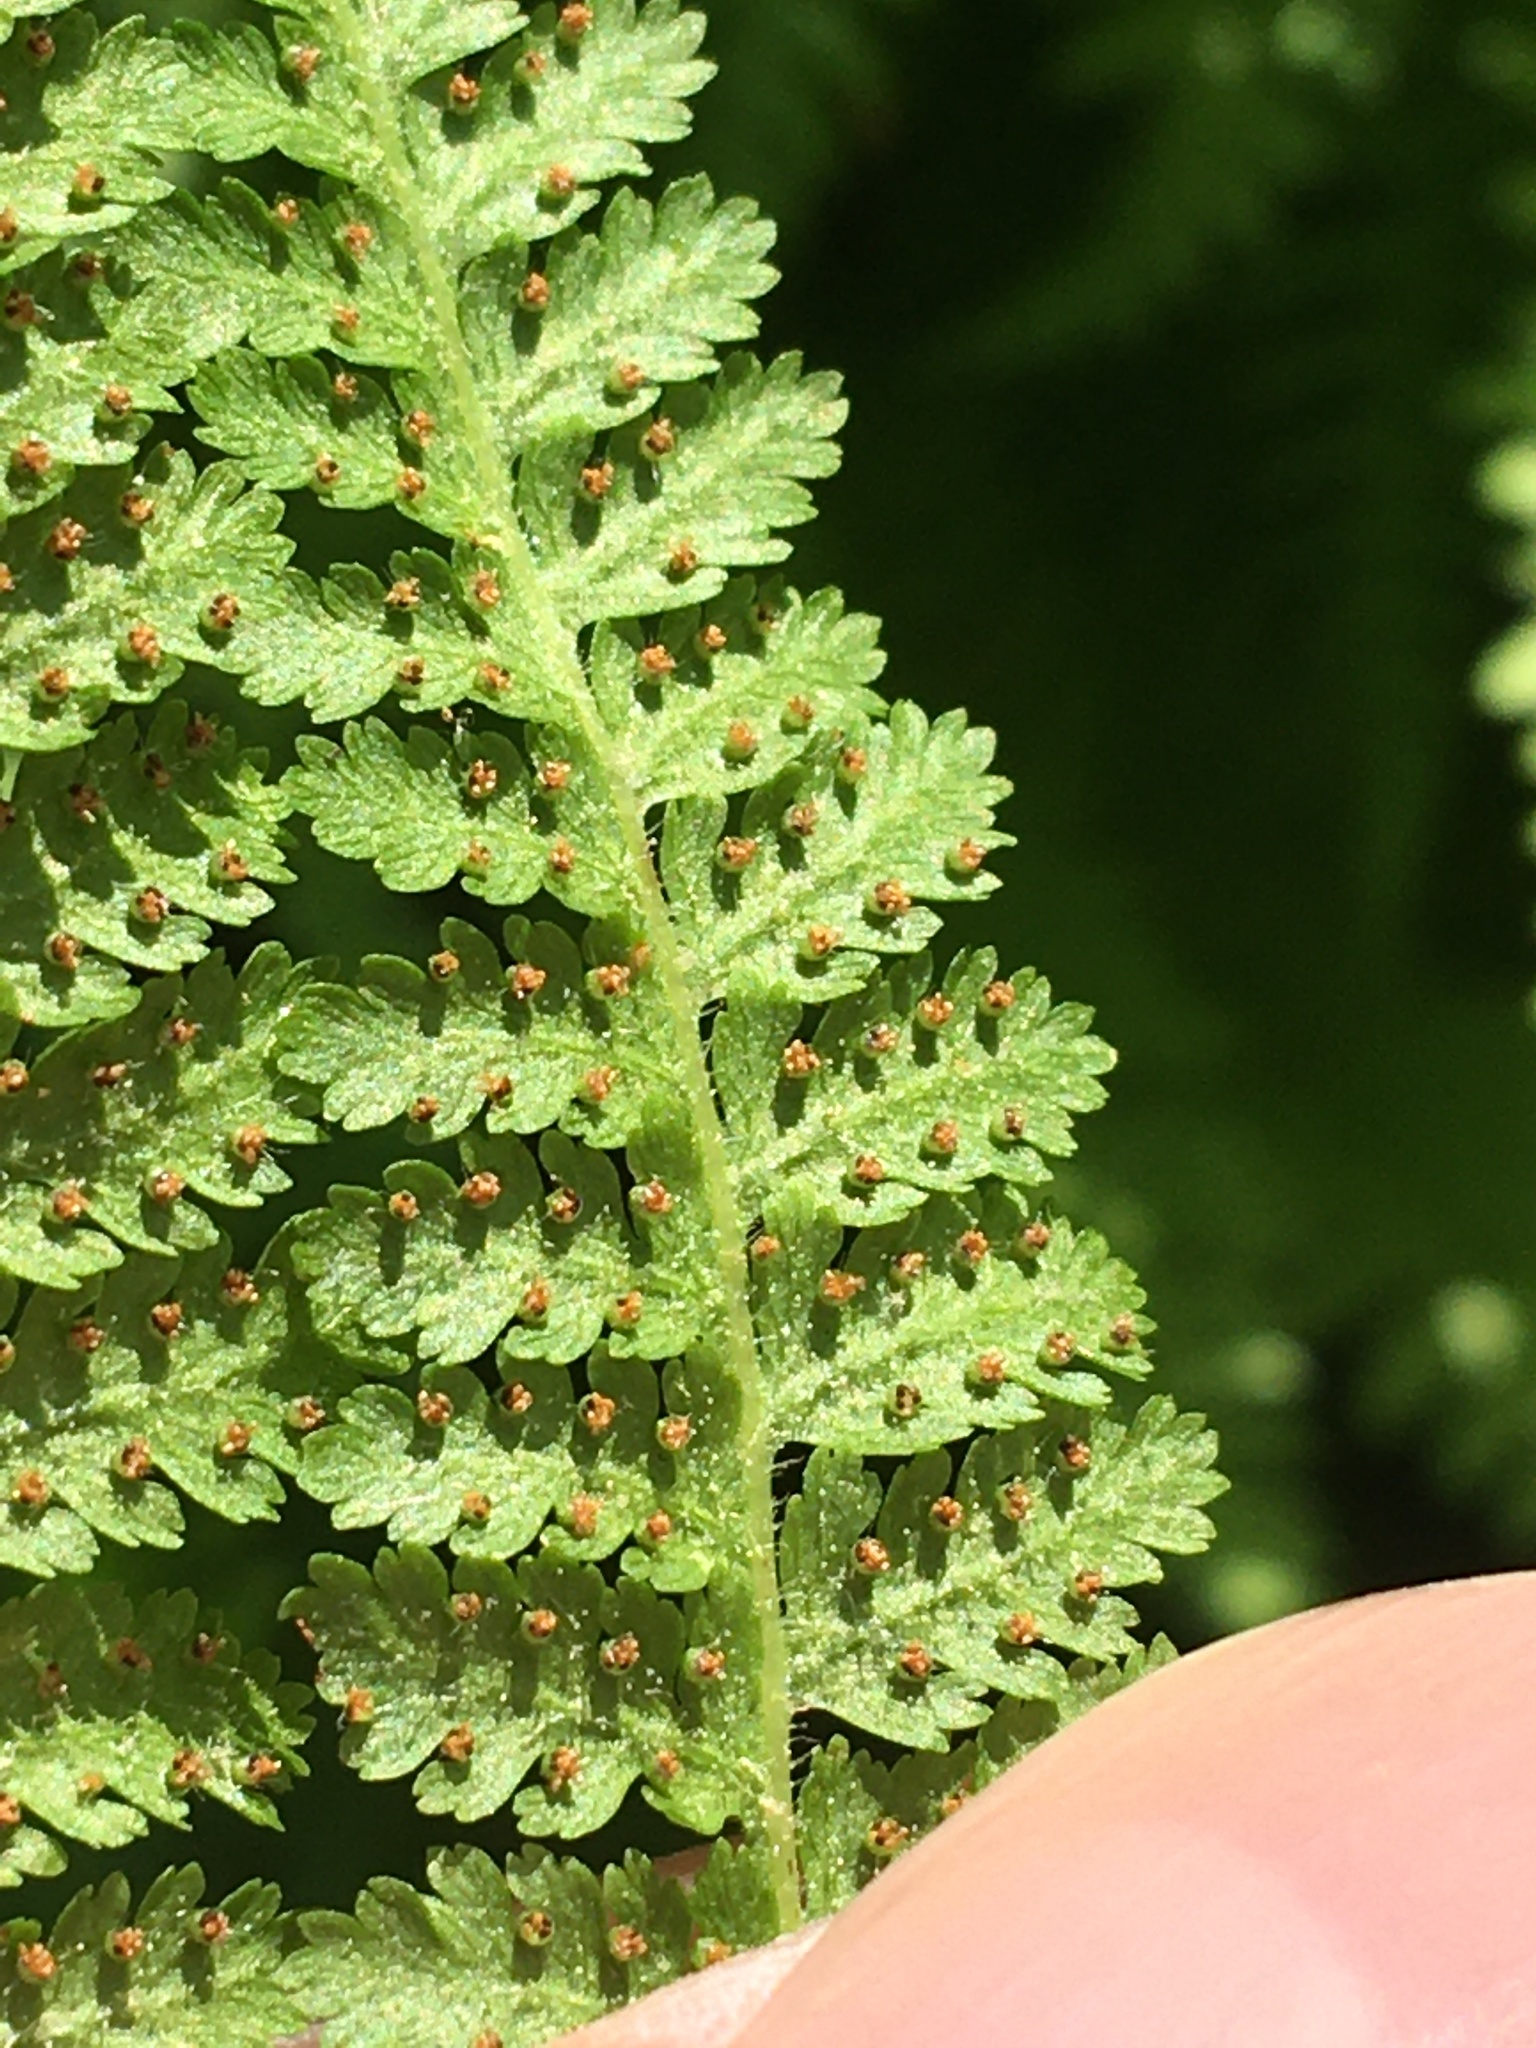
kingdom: Plantae
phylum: Tracheophyta
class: Polypodiopsida
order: Polypodiales
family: Dennstaedtiaceae
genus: Sitobolium
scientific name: Sitobolium punctilobum
